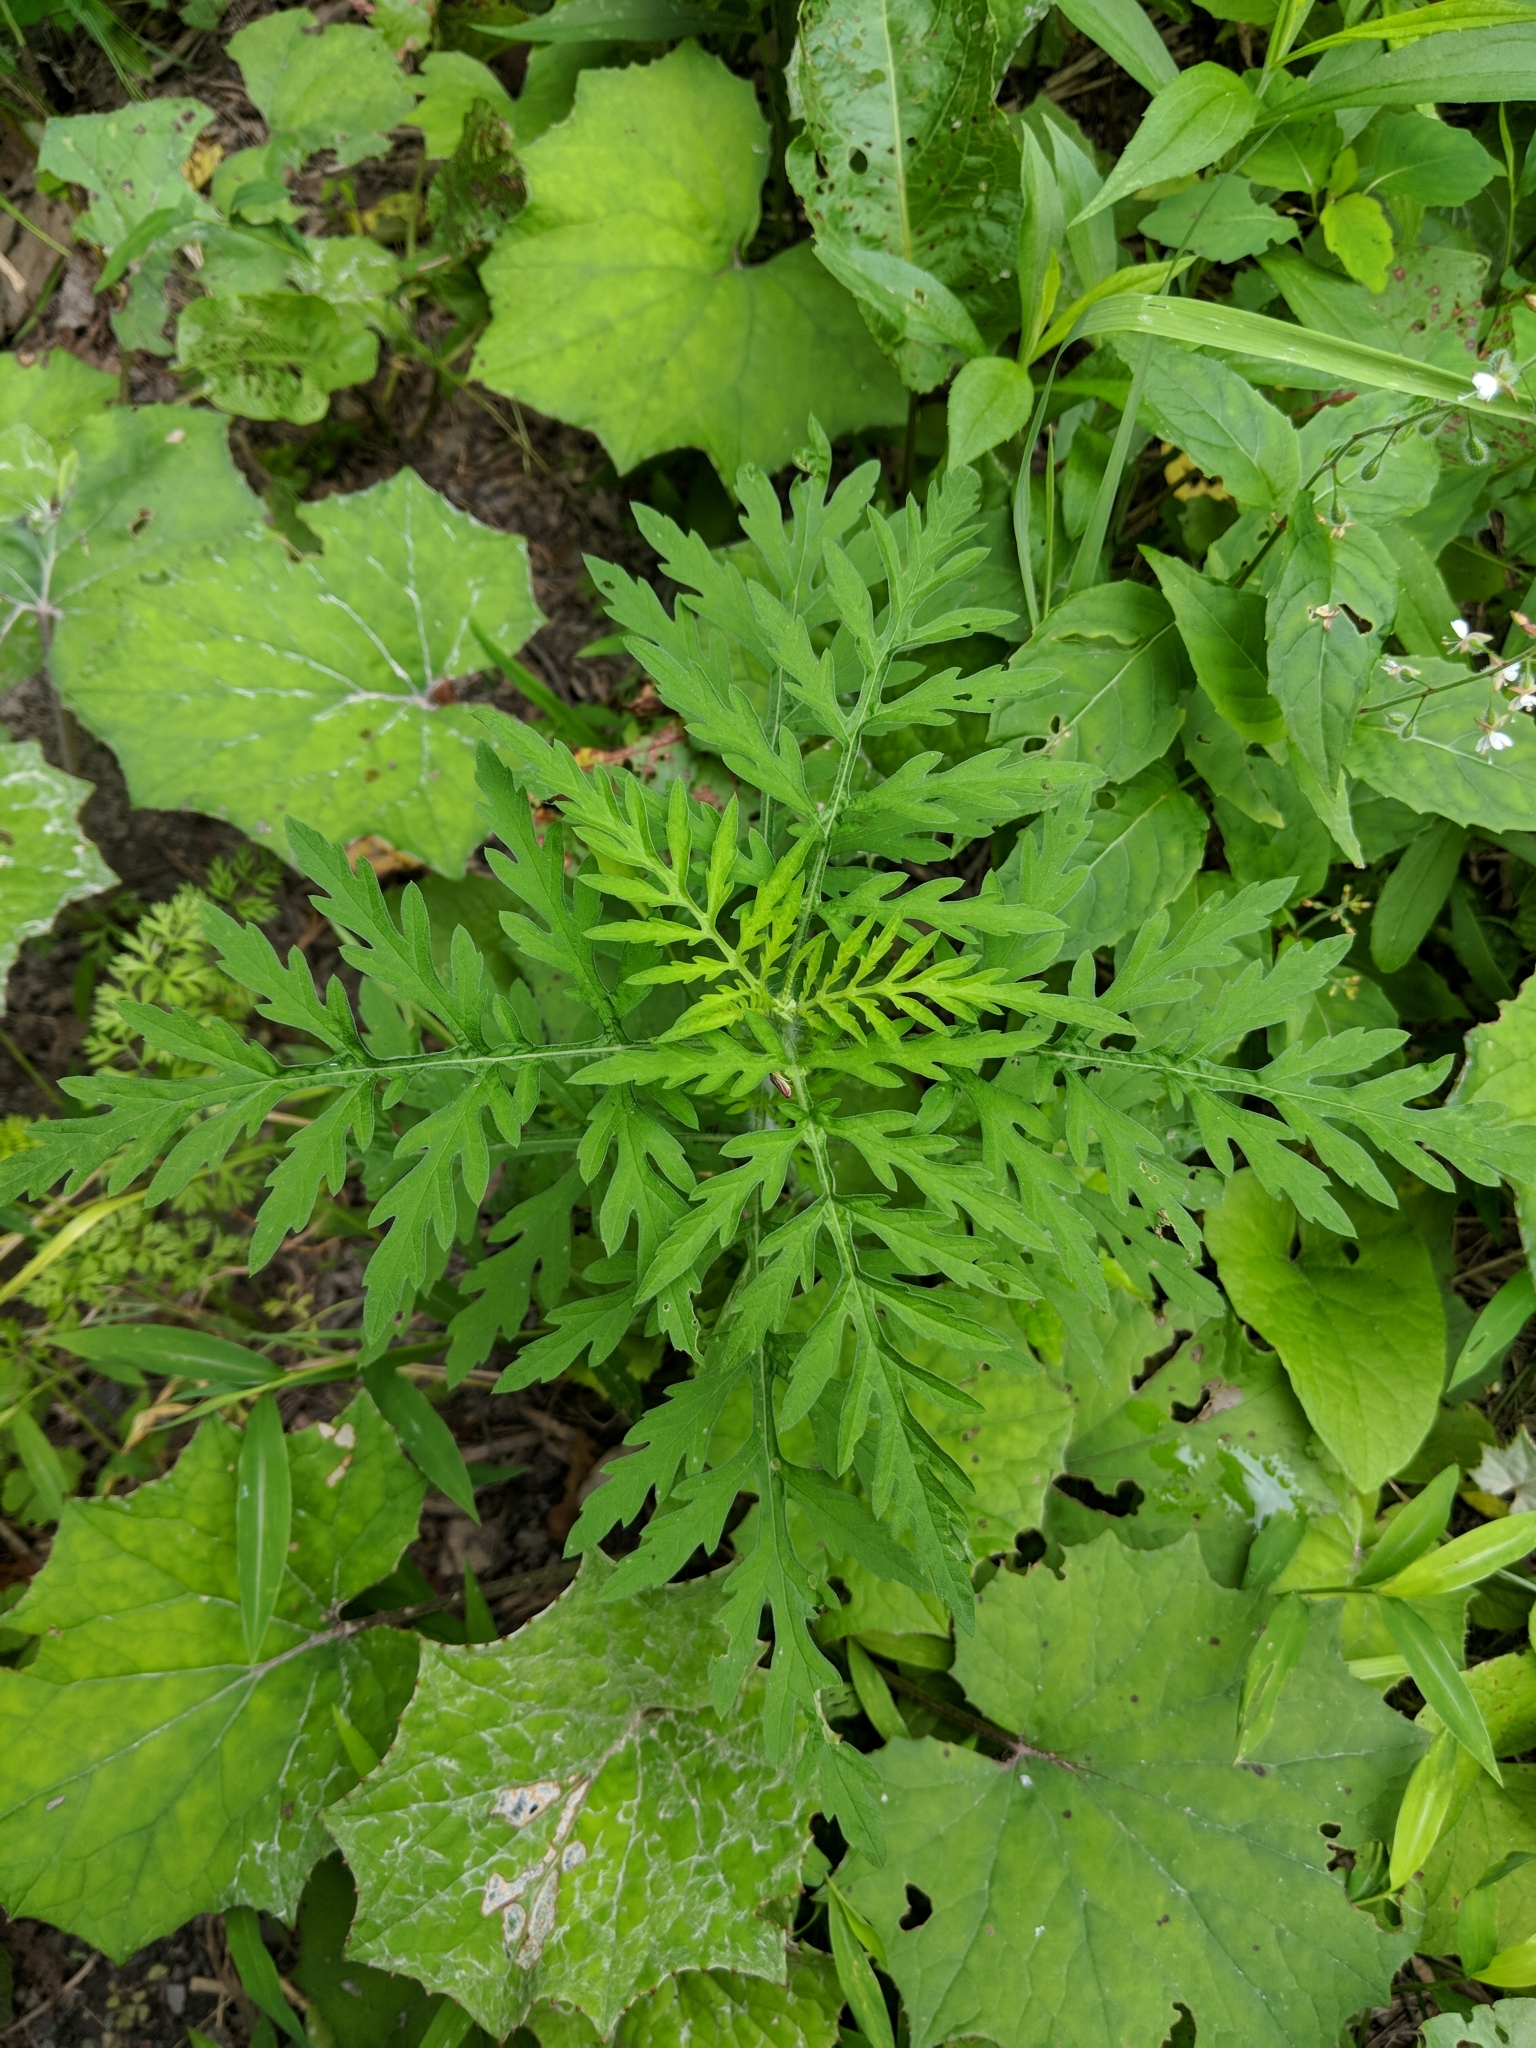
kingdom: Plantae
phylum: Tracheophyta
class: Magnoliopsida
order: Asterales
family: Asteraceae
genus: Ambrosia
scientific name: Ambrosia artemisiifolia
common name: Annual ragweed
